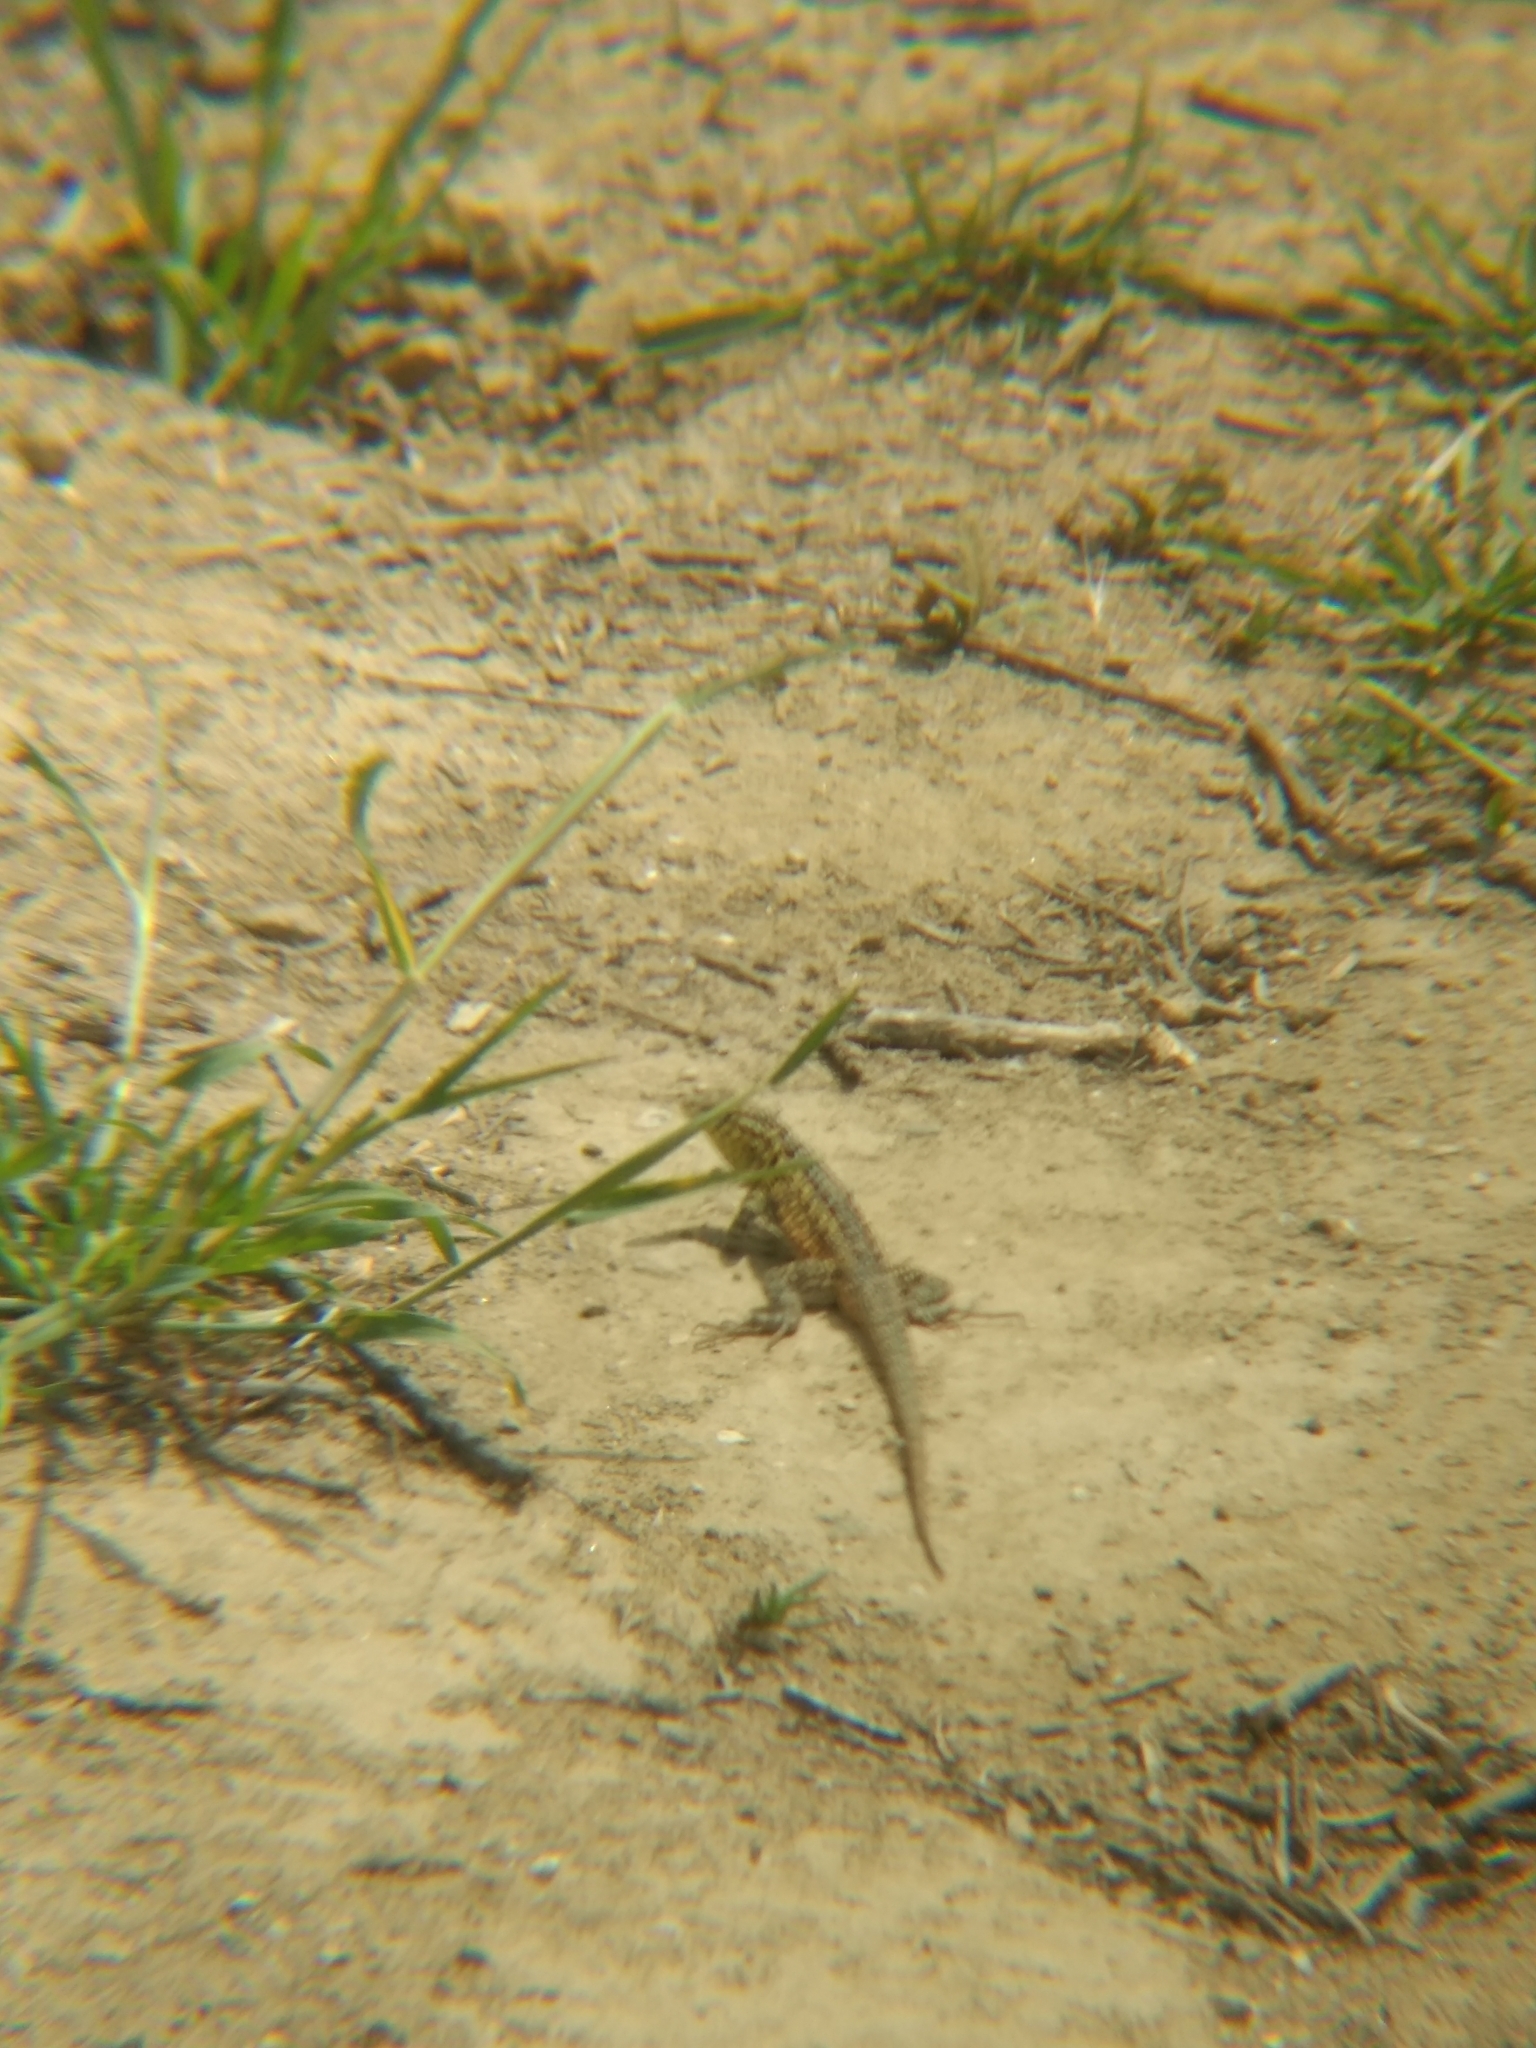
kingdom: Animalia
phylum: Chordata
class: Squamata
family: Phrynosomatidae
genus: Uta
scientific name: Uta stansburiana
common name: Side-blotched lizard
